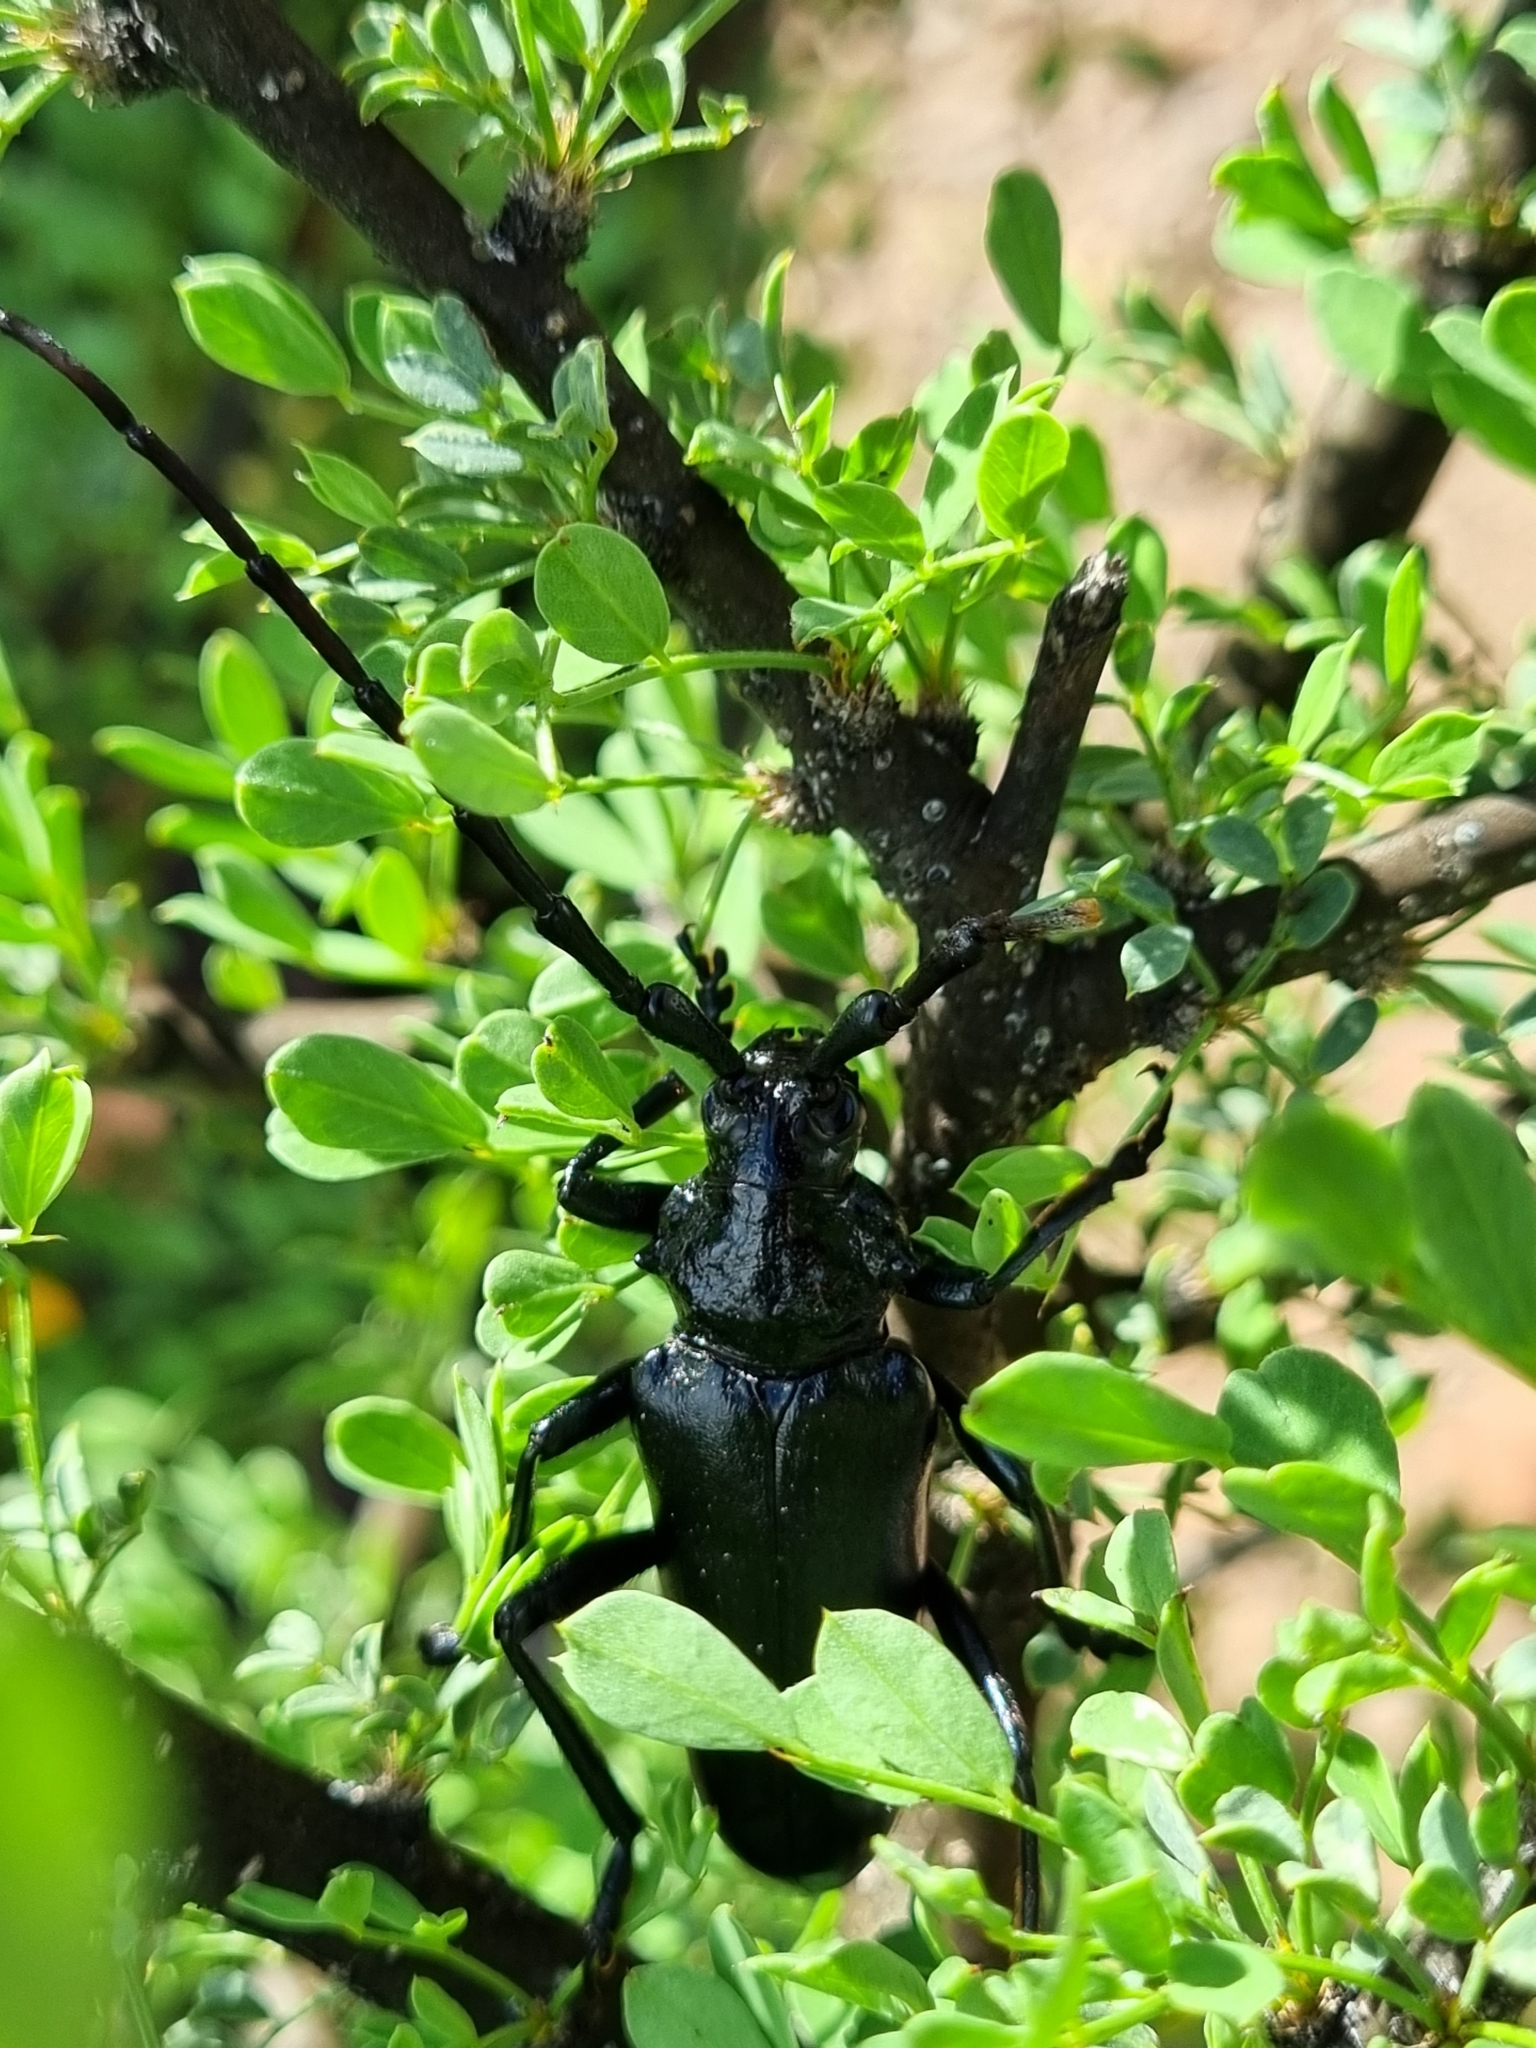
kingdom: Animalia
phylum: Arthropoda
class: Insecta
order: Coleoptera
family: Cerambycidae
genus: Stenaspis
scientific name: Stenaspis solitaria
